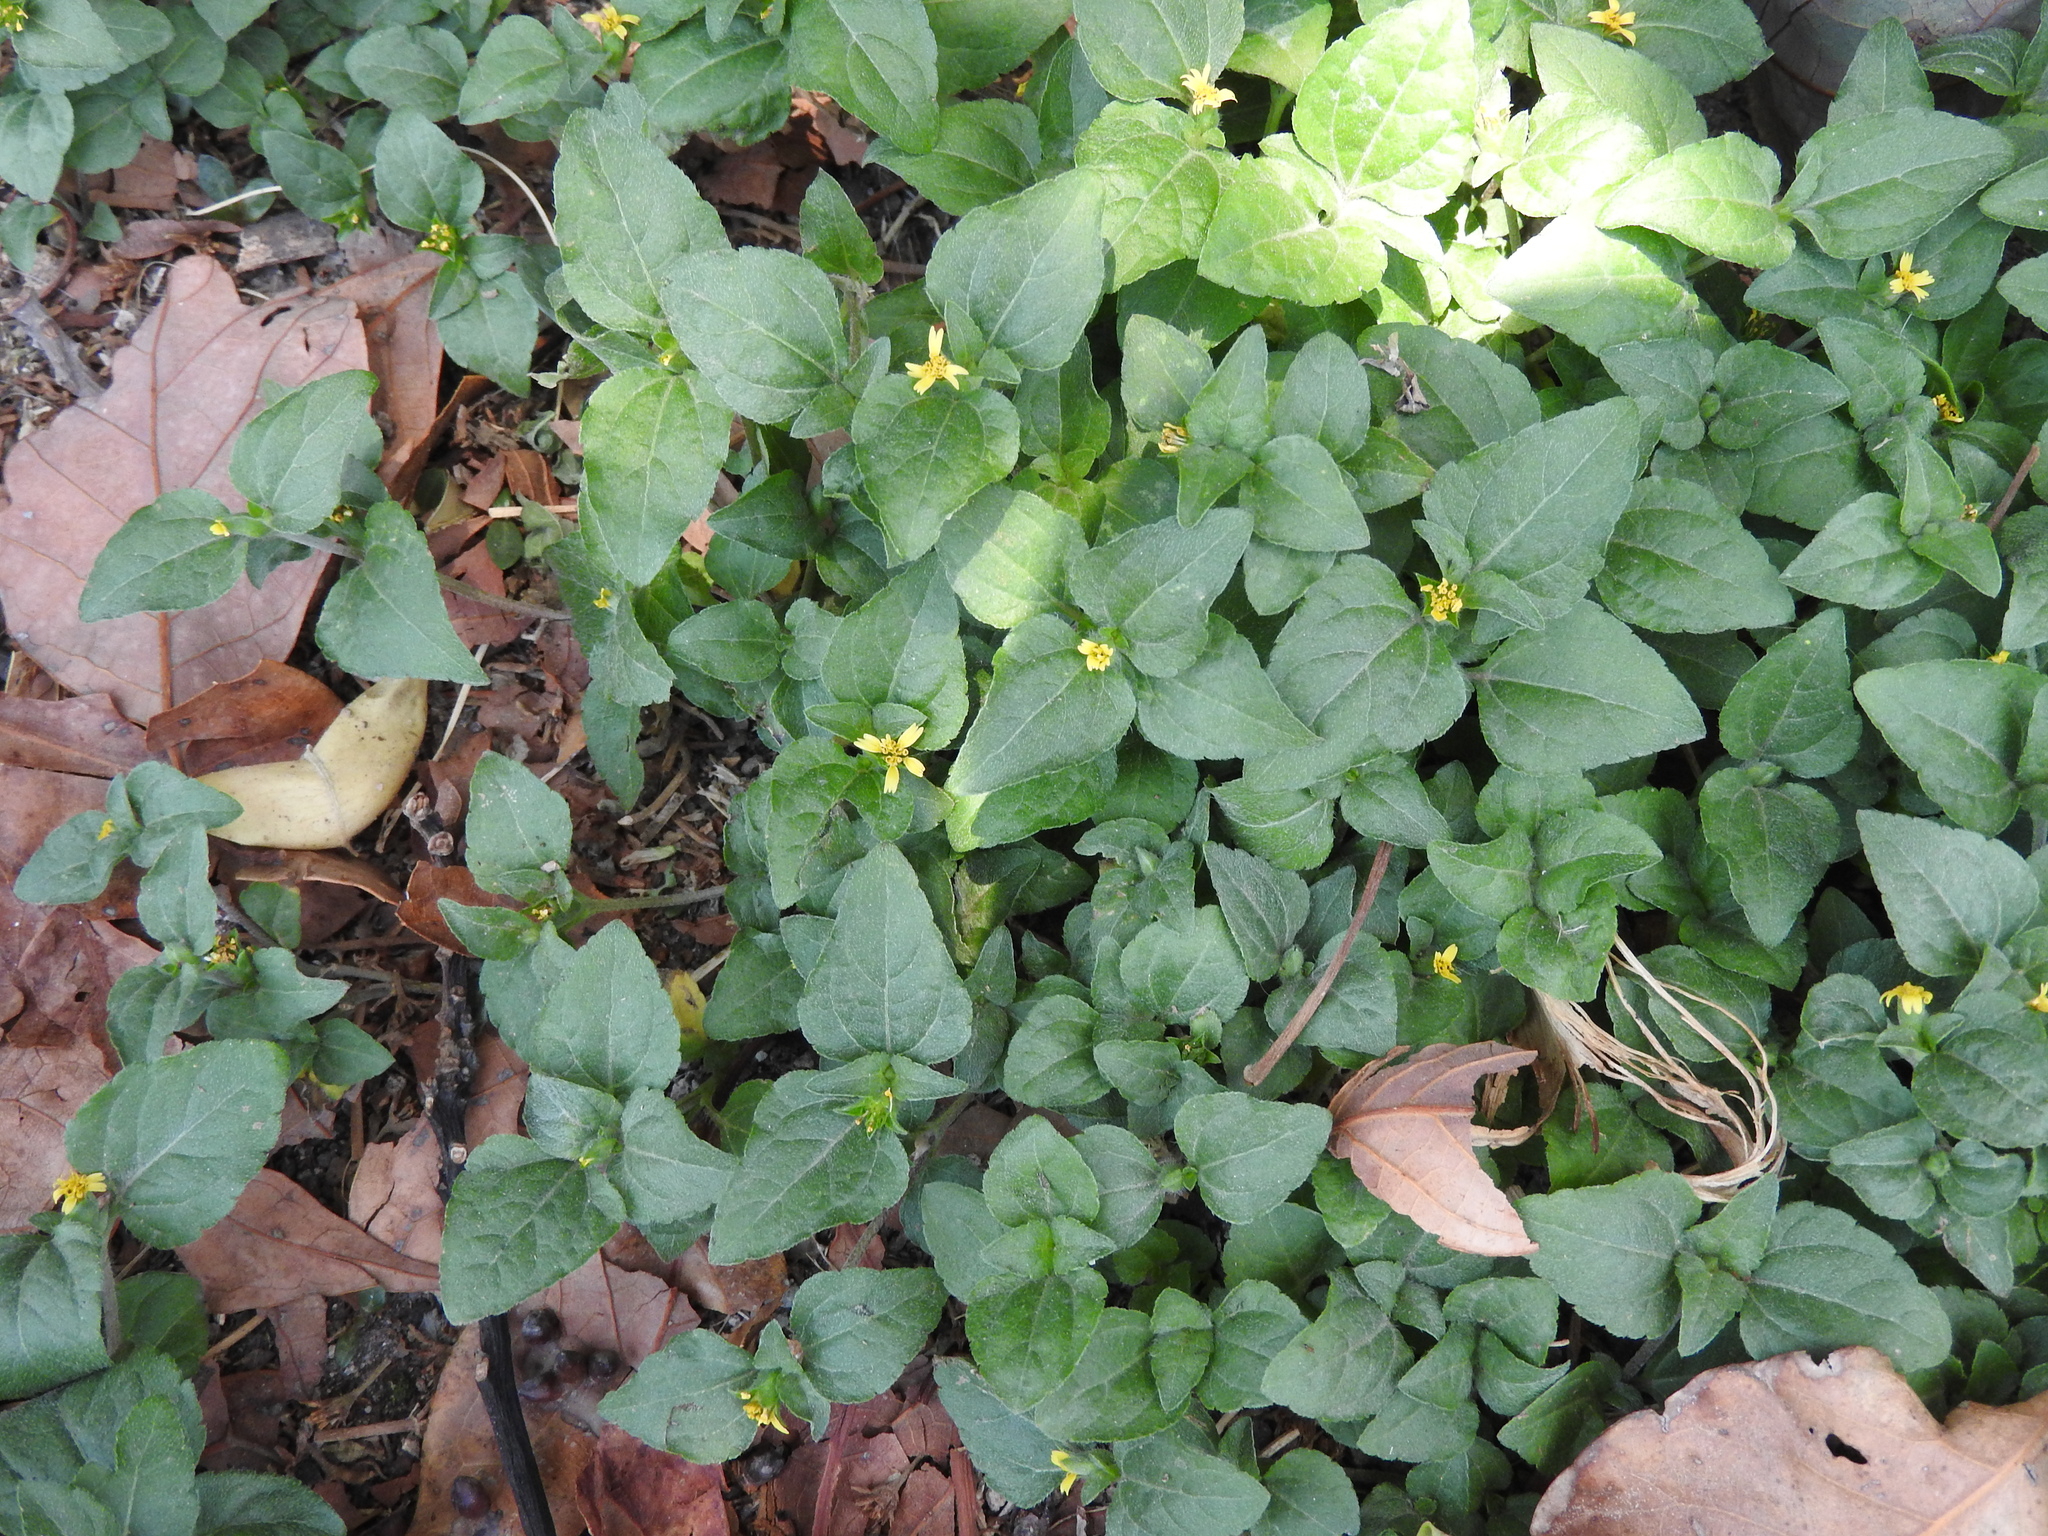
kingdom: Plantae
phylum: Tracheophyta
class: Magnoliopsida
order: Asterales
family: Asteraceae
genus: Calyptocarpus
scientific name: Calyptocarpus vialis
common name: Straggler daisy
